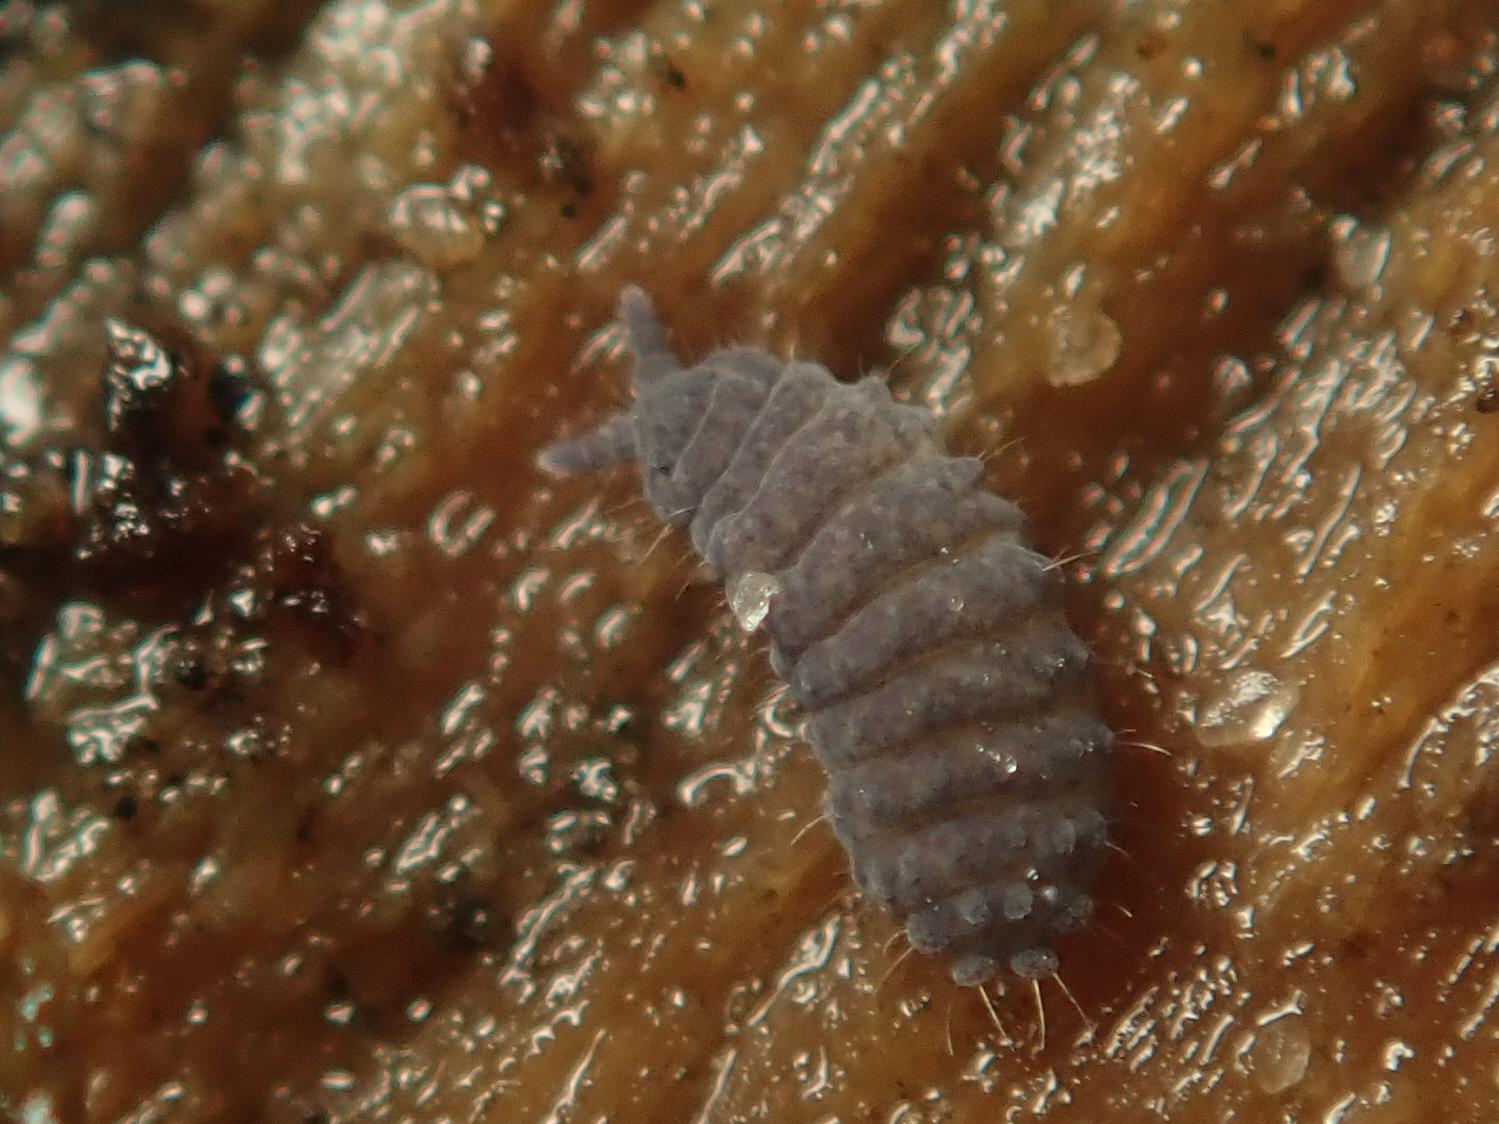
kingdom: Animalia
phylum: Arthropoda
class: Collembola
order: Poduromorpha
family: Neanuridae
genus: Neanura
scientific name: Neanura muscorum
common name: Springtail
